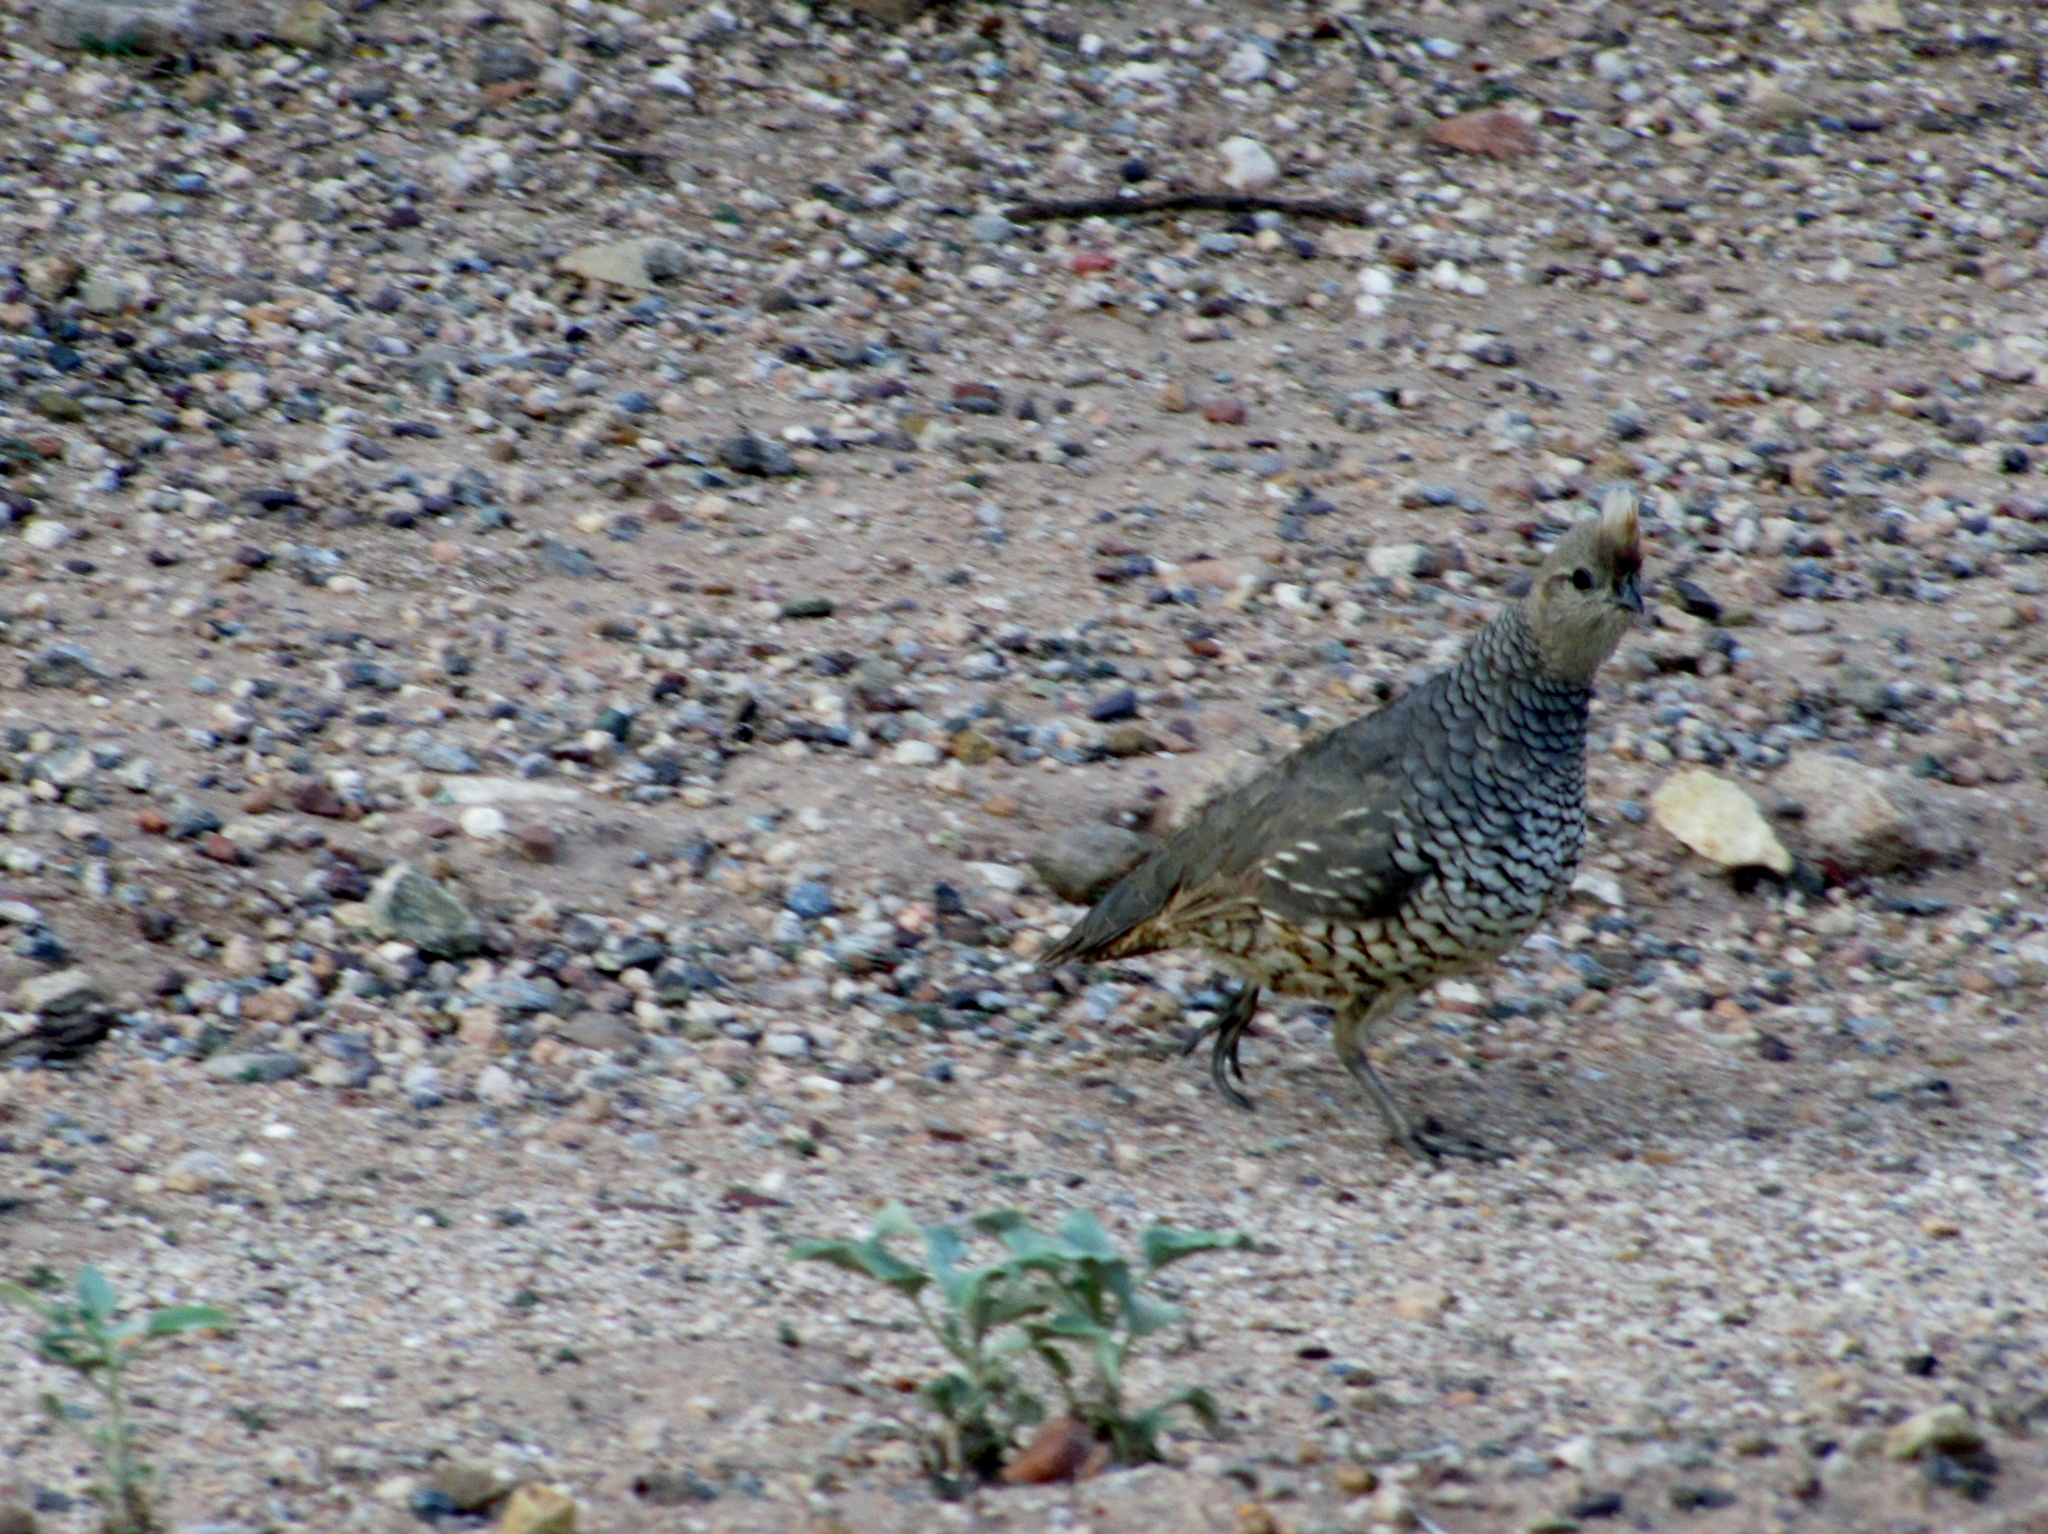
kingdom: Animalia
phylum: Chordata
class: Aves
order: Galliformes
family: Odontophoridae
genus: Callipepla
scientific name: Callipepla squamata
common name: Scaled quail
